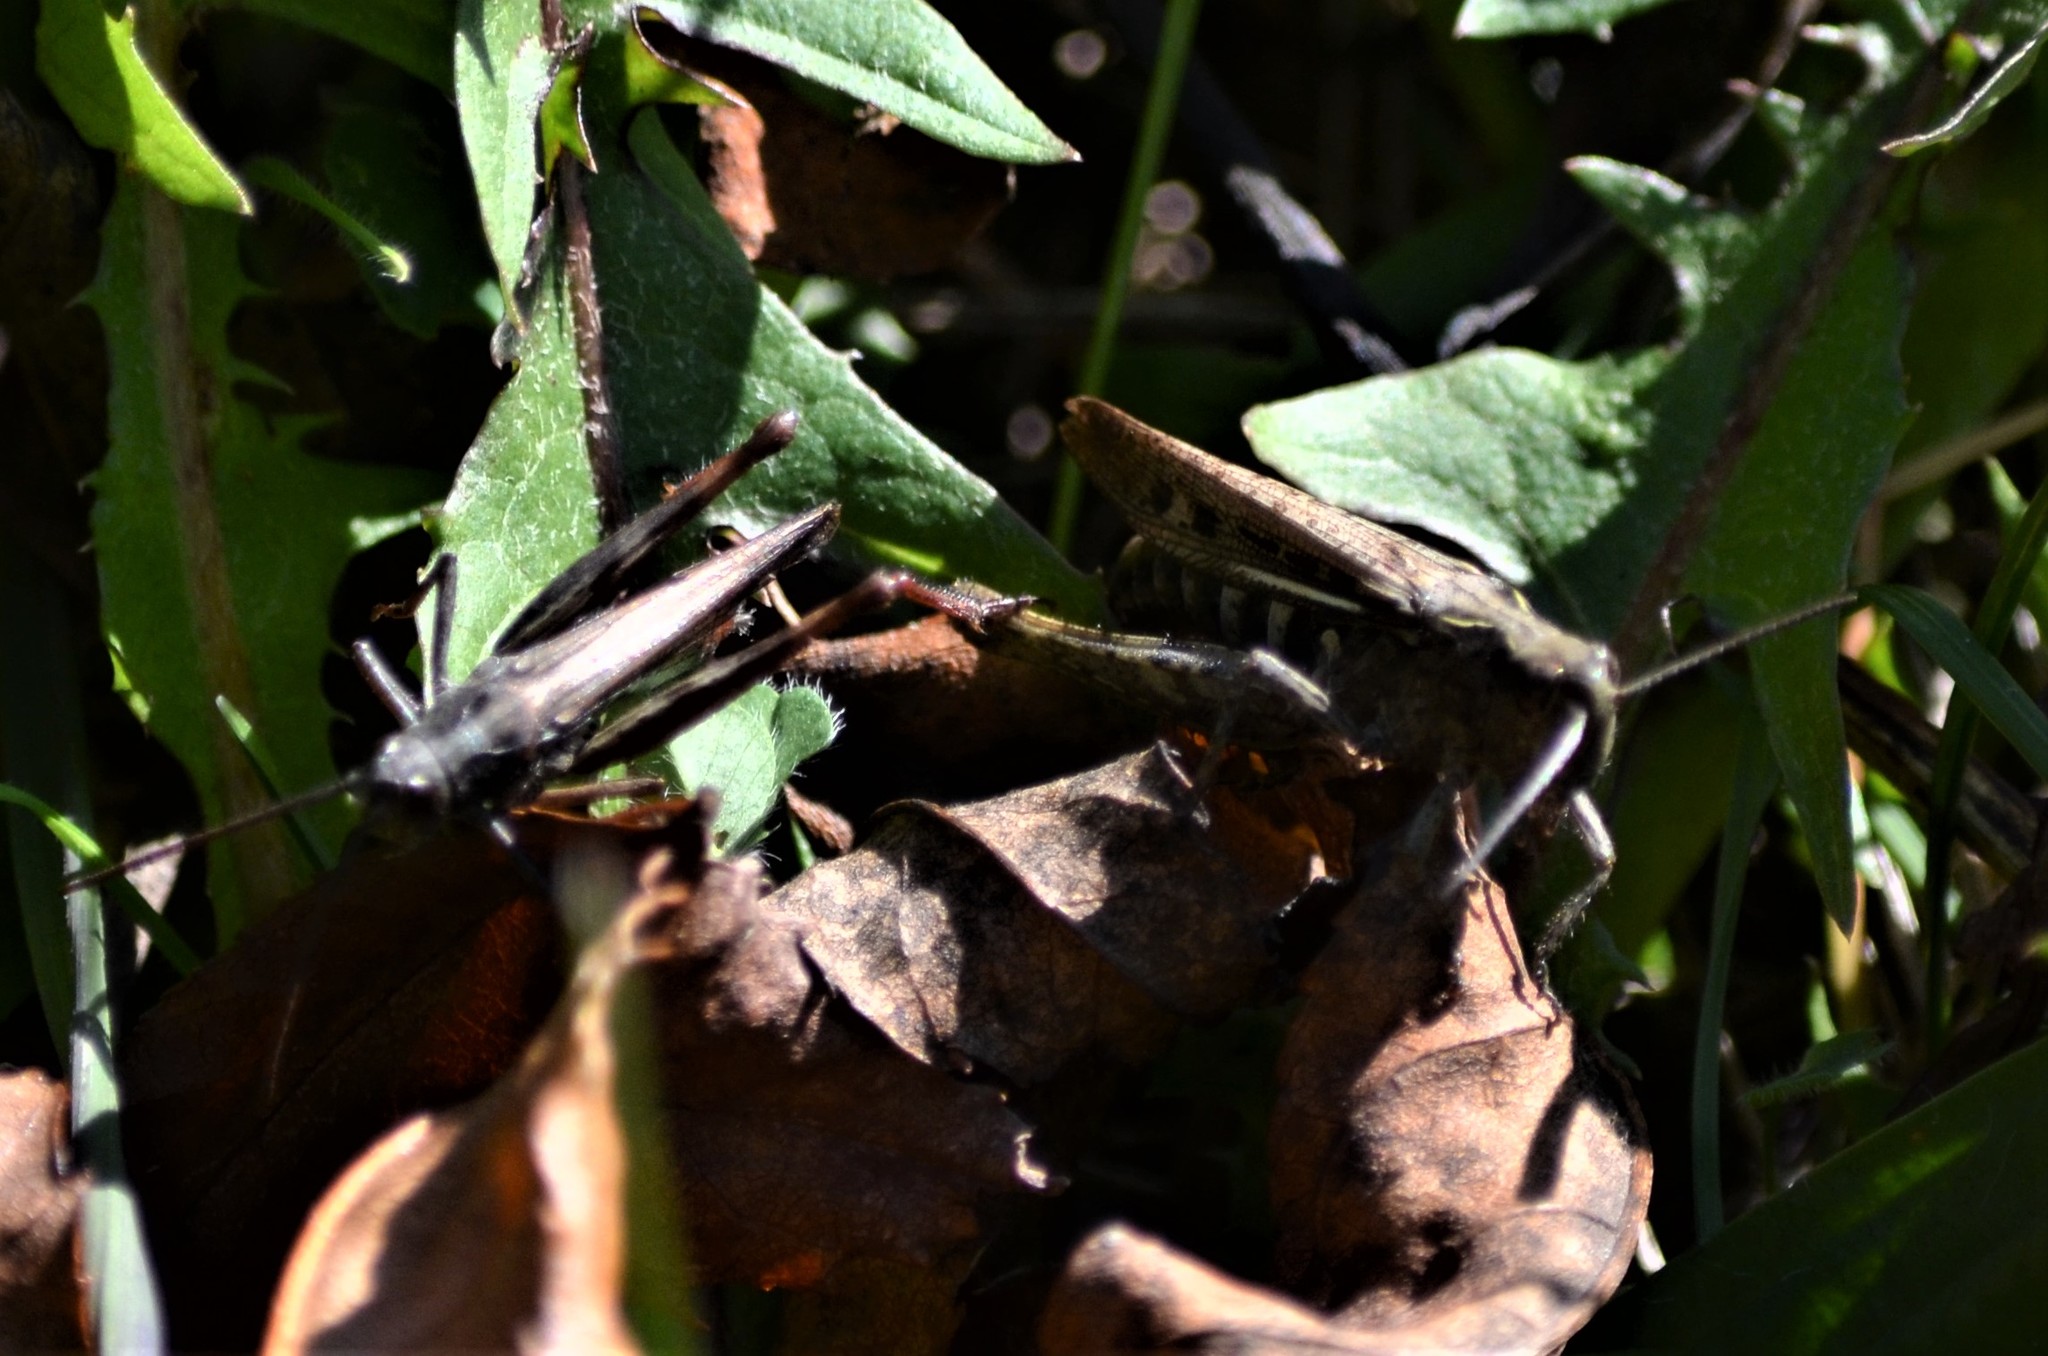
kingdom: Animalia
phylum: Arthropoda
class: Insecta
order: Orthoptera
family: Acrididae
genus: Chorthippus
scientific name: Chorthippus biguttulus
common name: Bow-winged grasshopper
